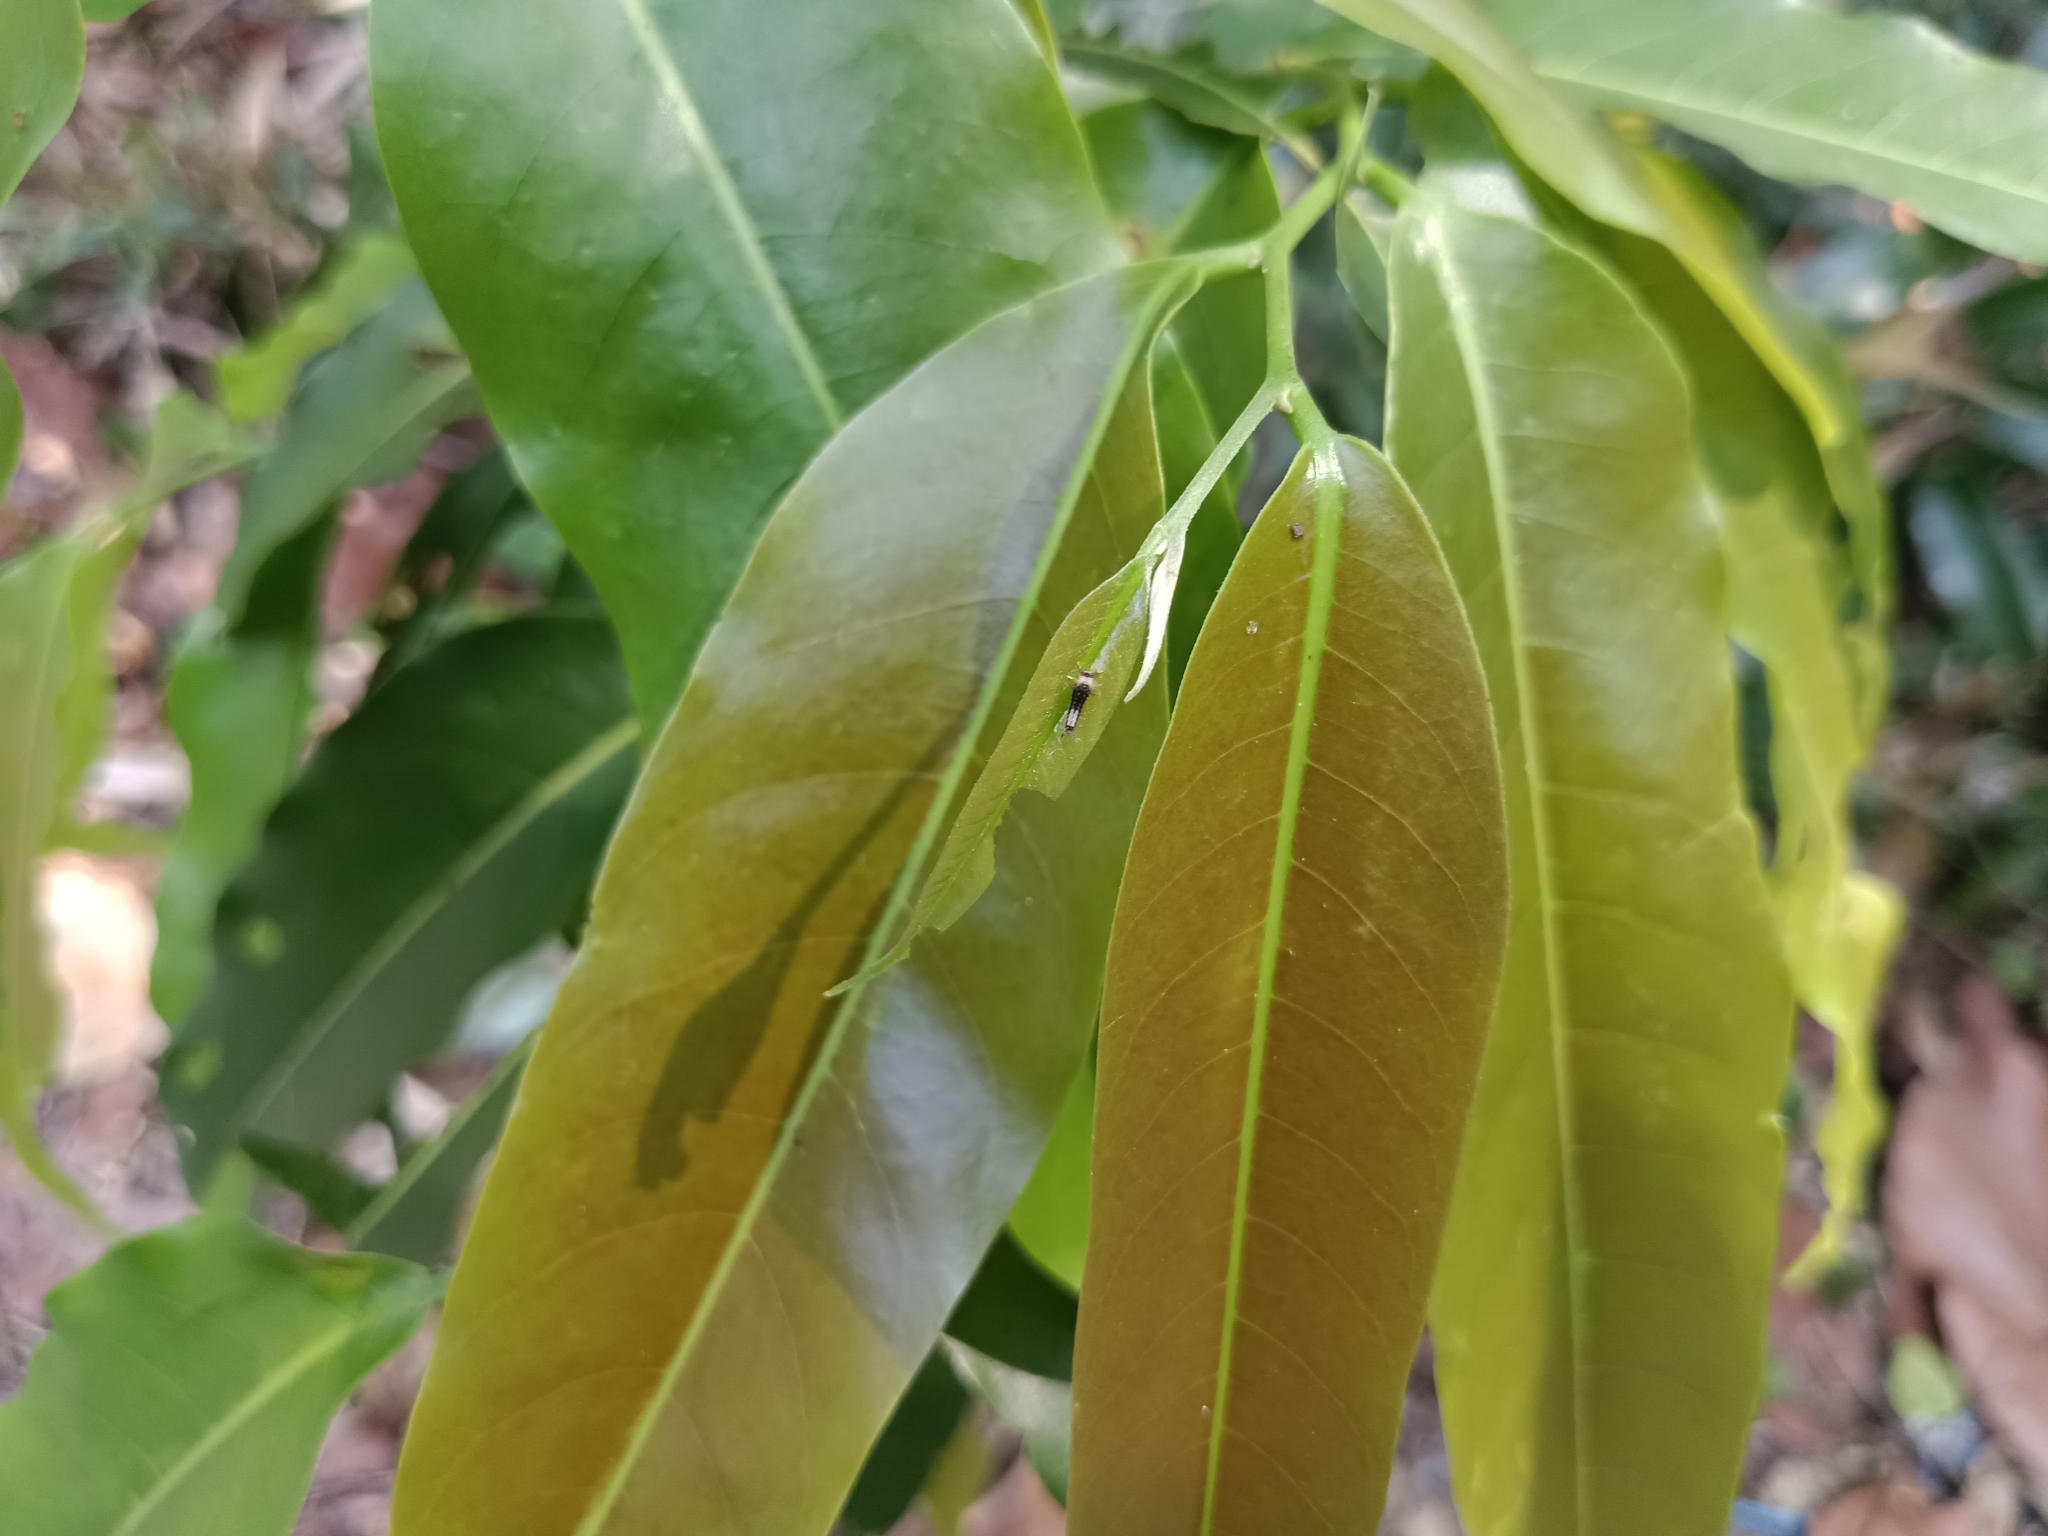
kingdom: Animalia
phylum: Arthropoda
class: Insecta
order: Lepidoptera
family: Papilionidae
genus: Graphium
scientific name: Graphium agamemnon
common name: Tailed jay
